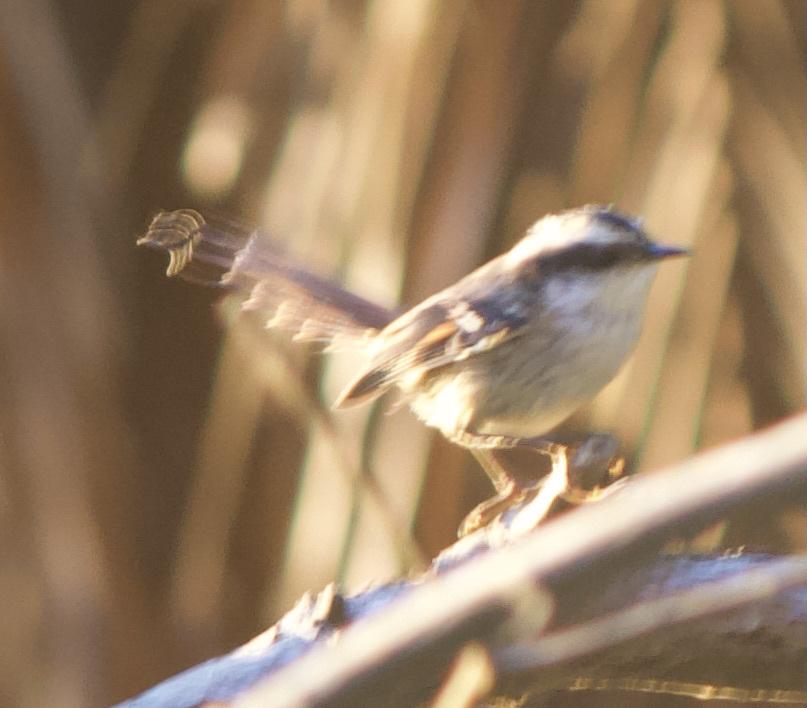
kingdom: Animalia
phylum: Chordata
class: Aves
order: Passeriformes
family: Furnariidae
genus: Aphrastura
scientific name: Aphrastura spinicauda
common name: Thorn-tailed rayadito
